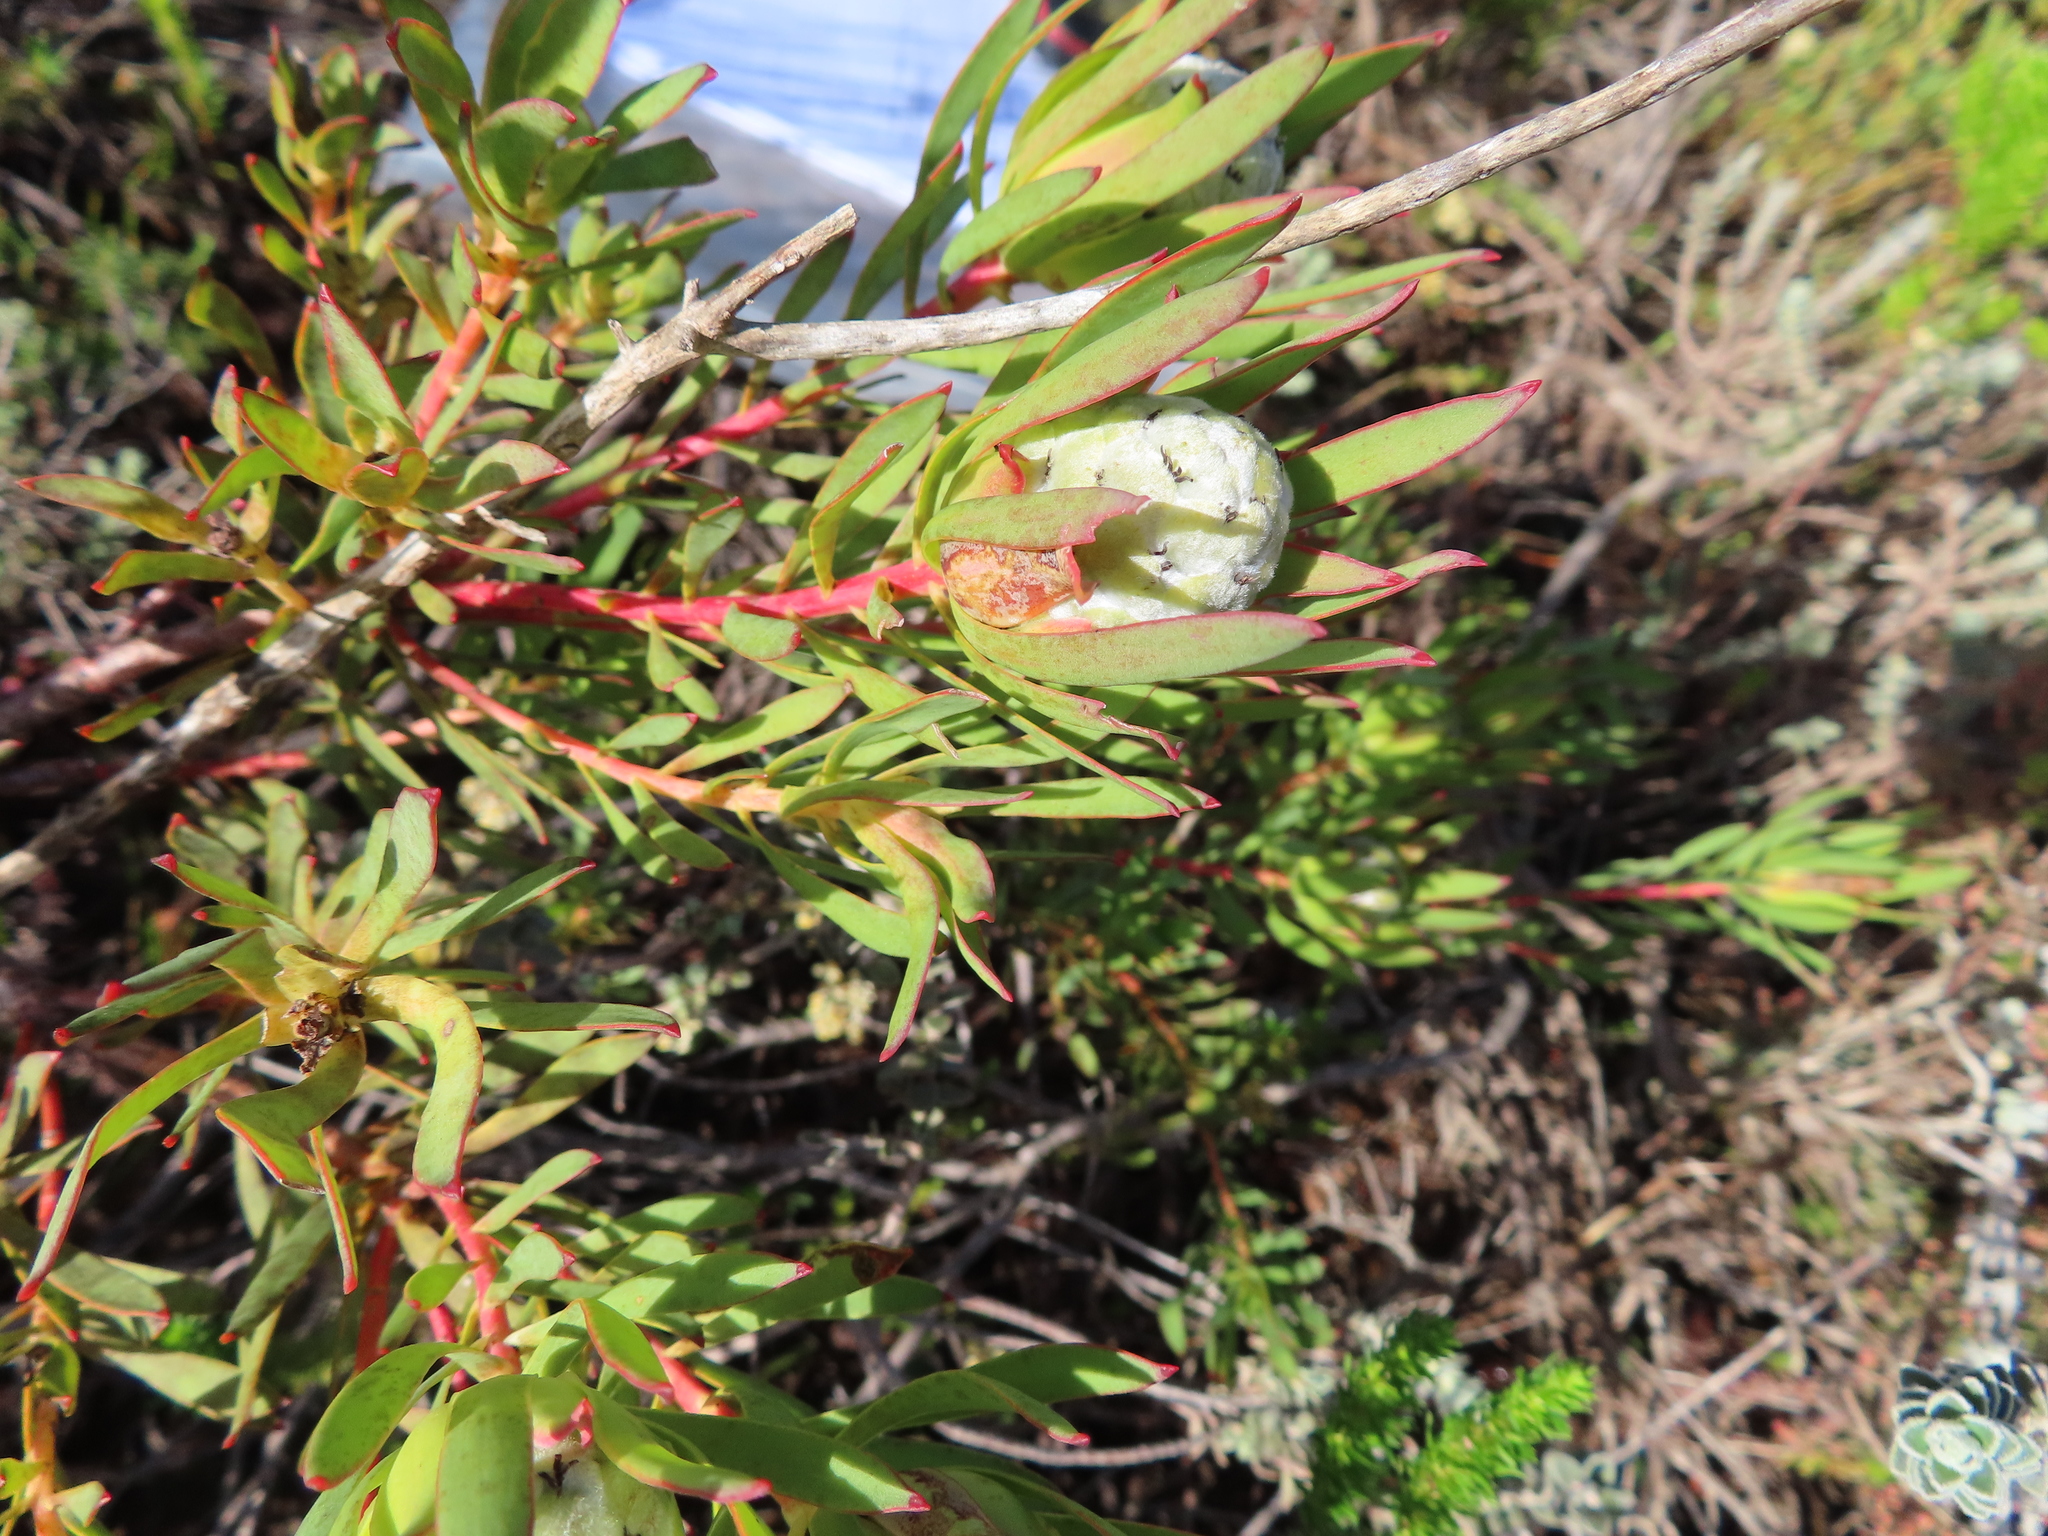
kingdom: Plantae
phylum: Tracheophyta
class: Magnoliopsida
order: Proteales
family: Proteaceae
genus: Leucadendron
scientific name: Leucadendron modestum
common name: Rough-leaf conebush
